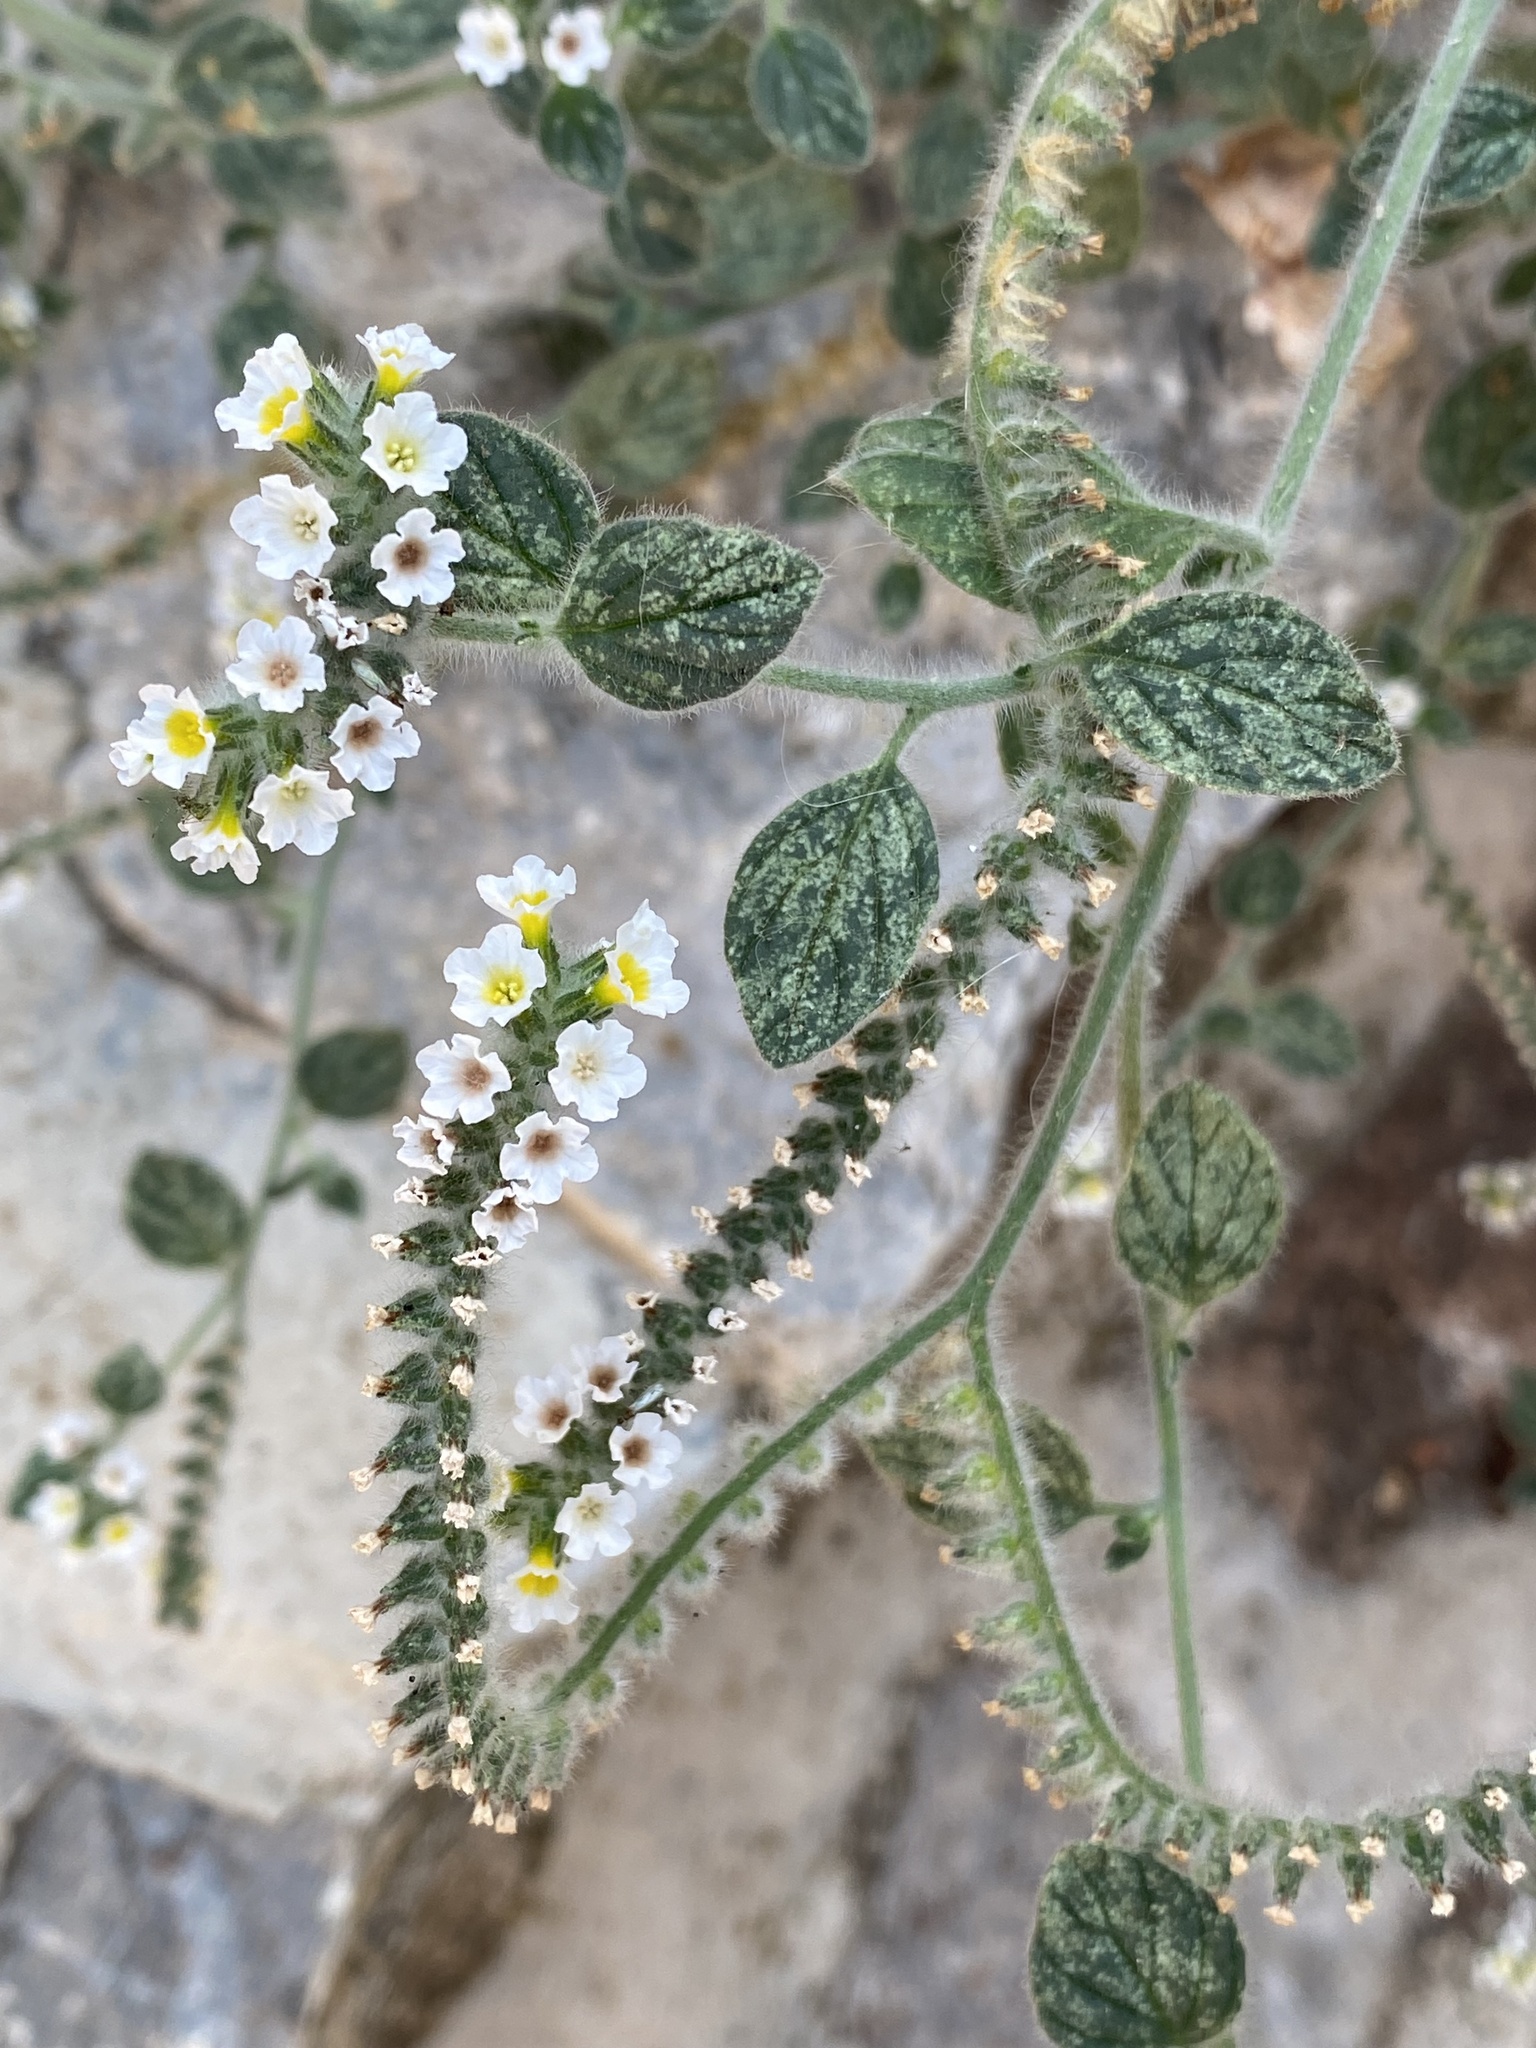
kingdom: Plantae
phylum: Tracheophyta
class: Magnoliopsida
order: Boraginales
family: Heliotropiaceae
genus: Heliotropium
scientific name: Heliotropium hirsutissimum
